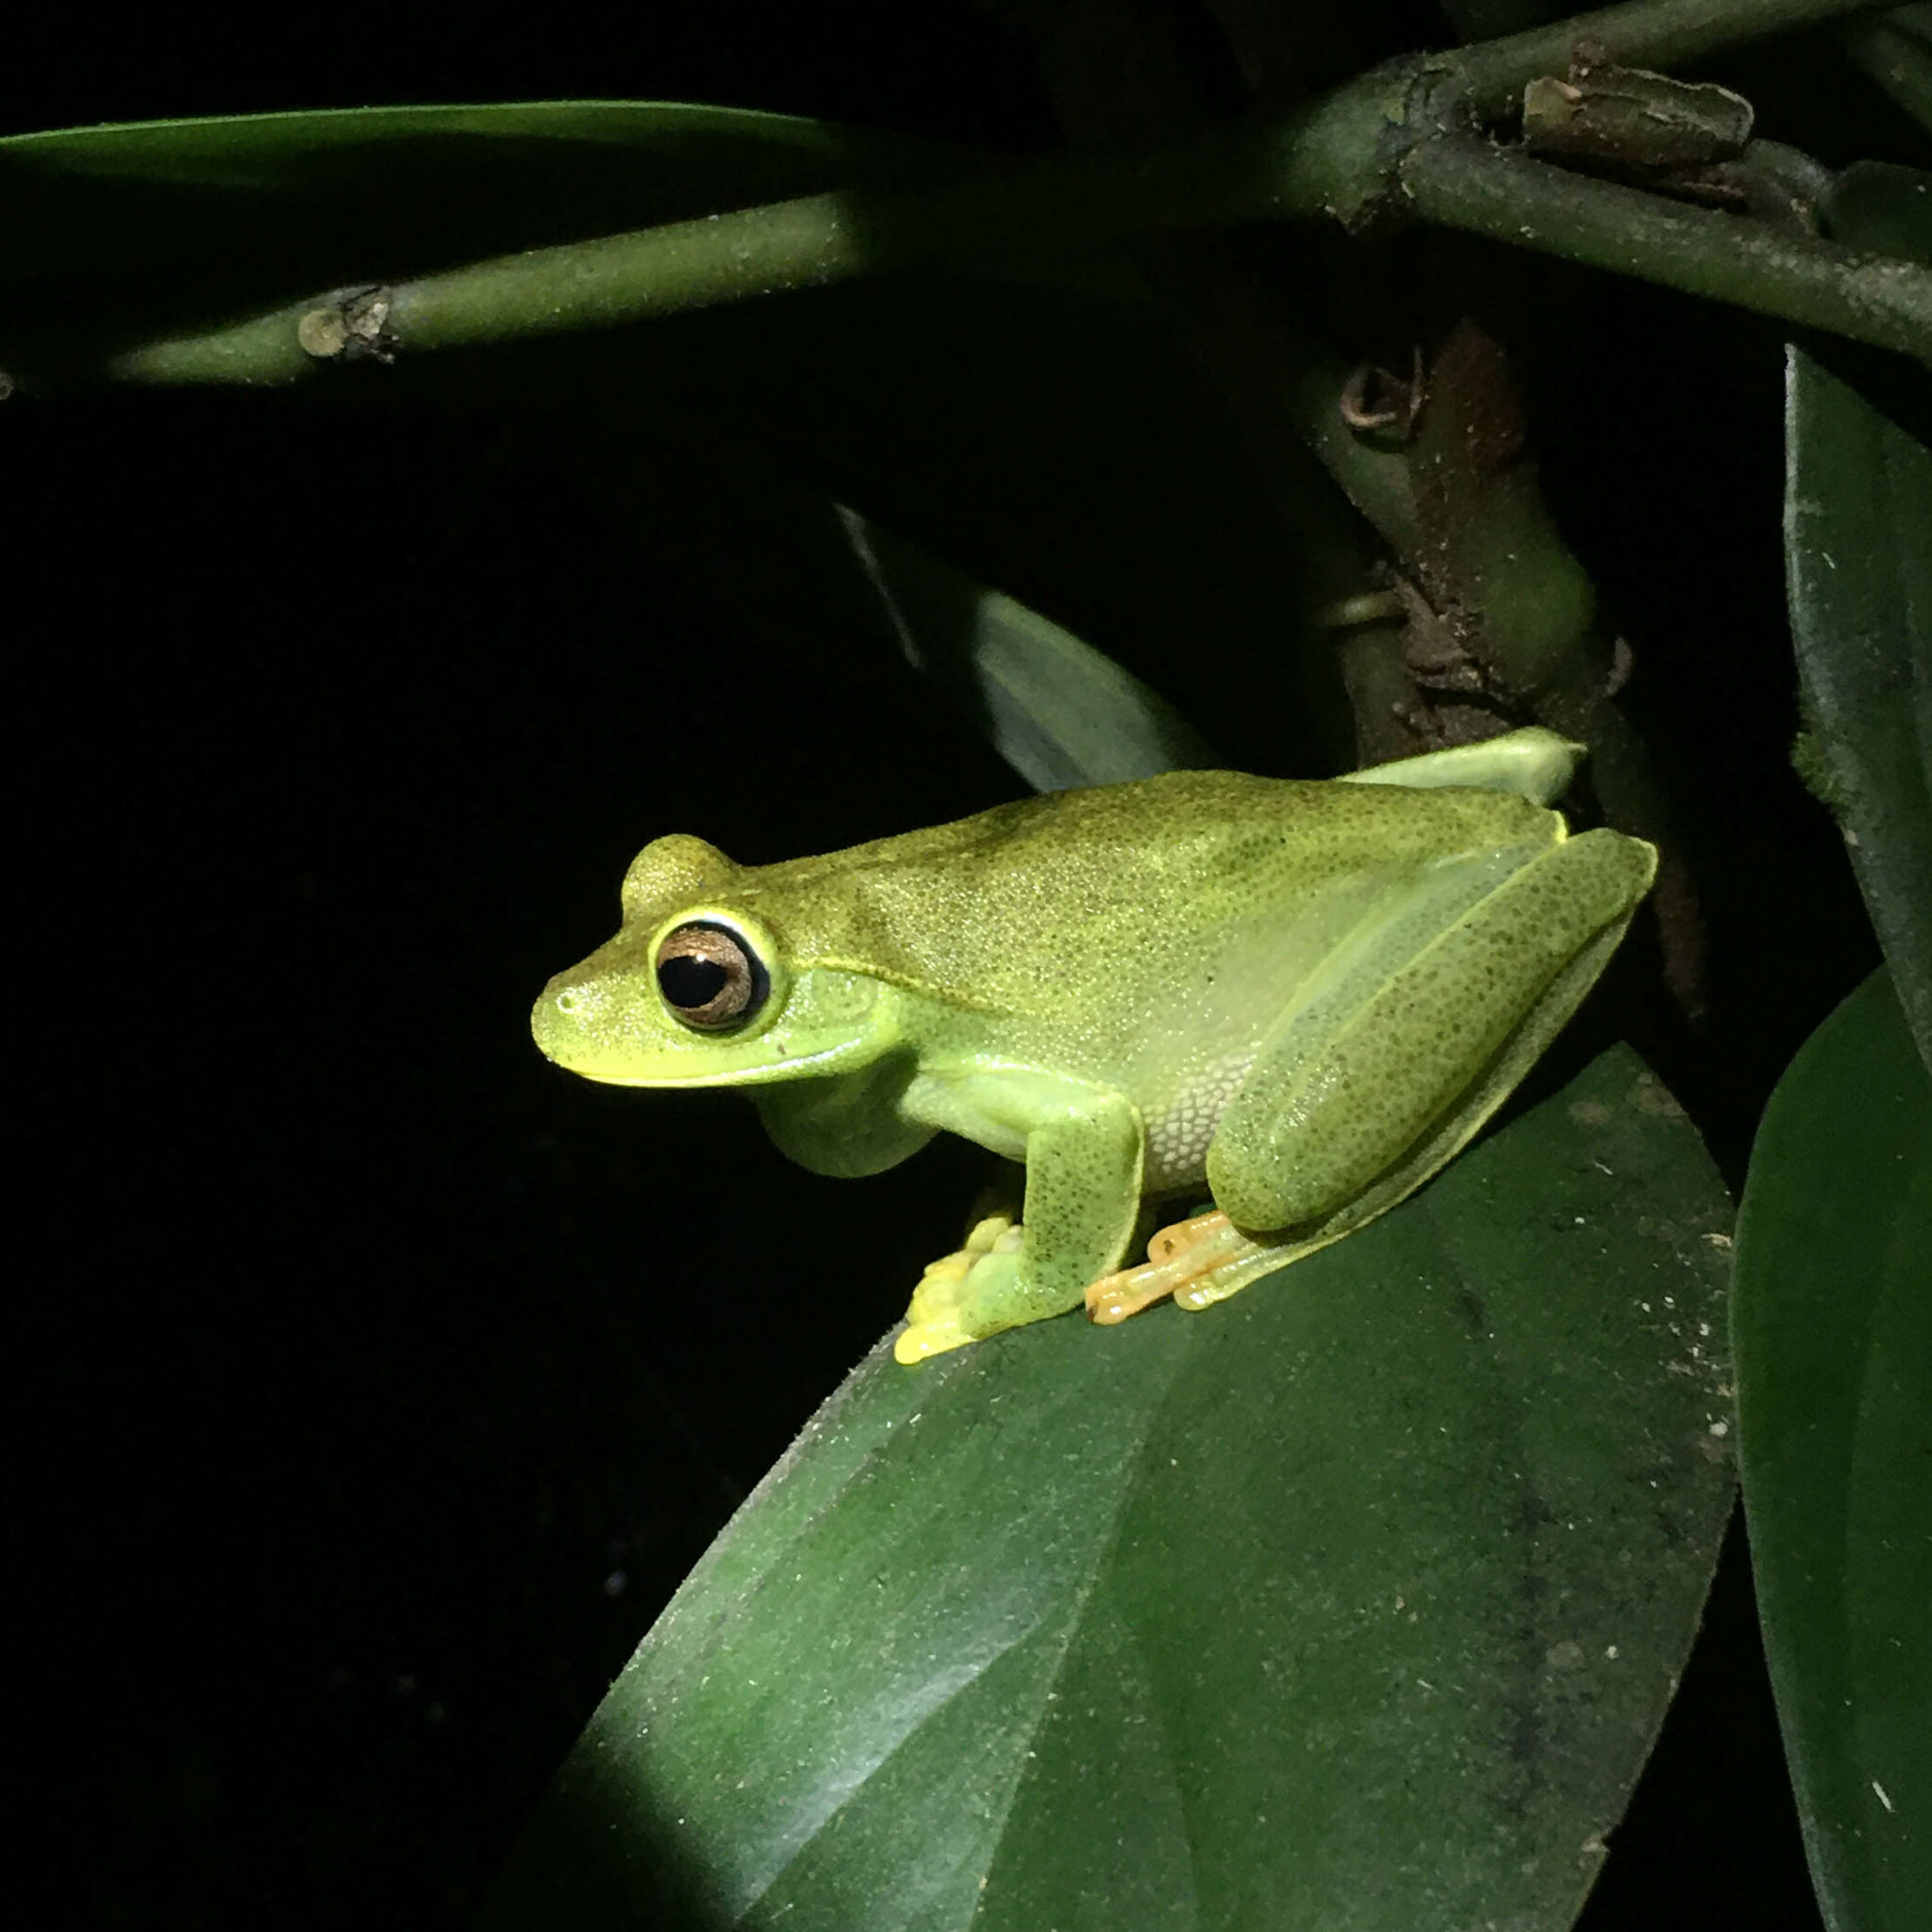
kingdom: Animalia
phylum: Chordata
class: Amphibia
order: Anura
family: Hylidae
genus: Boana
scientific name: Boana albomarginata
